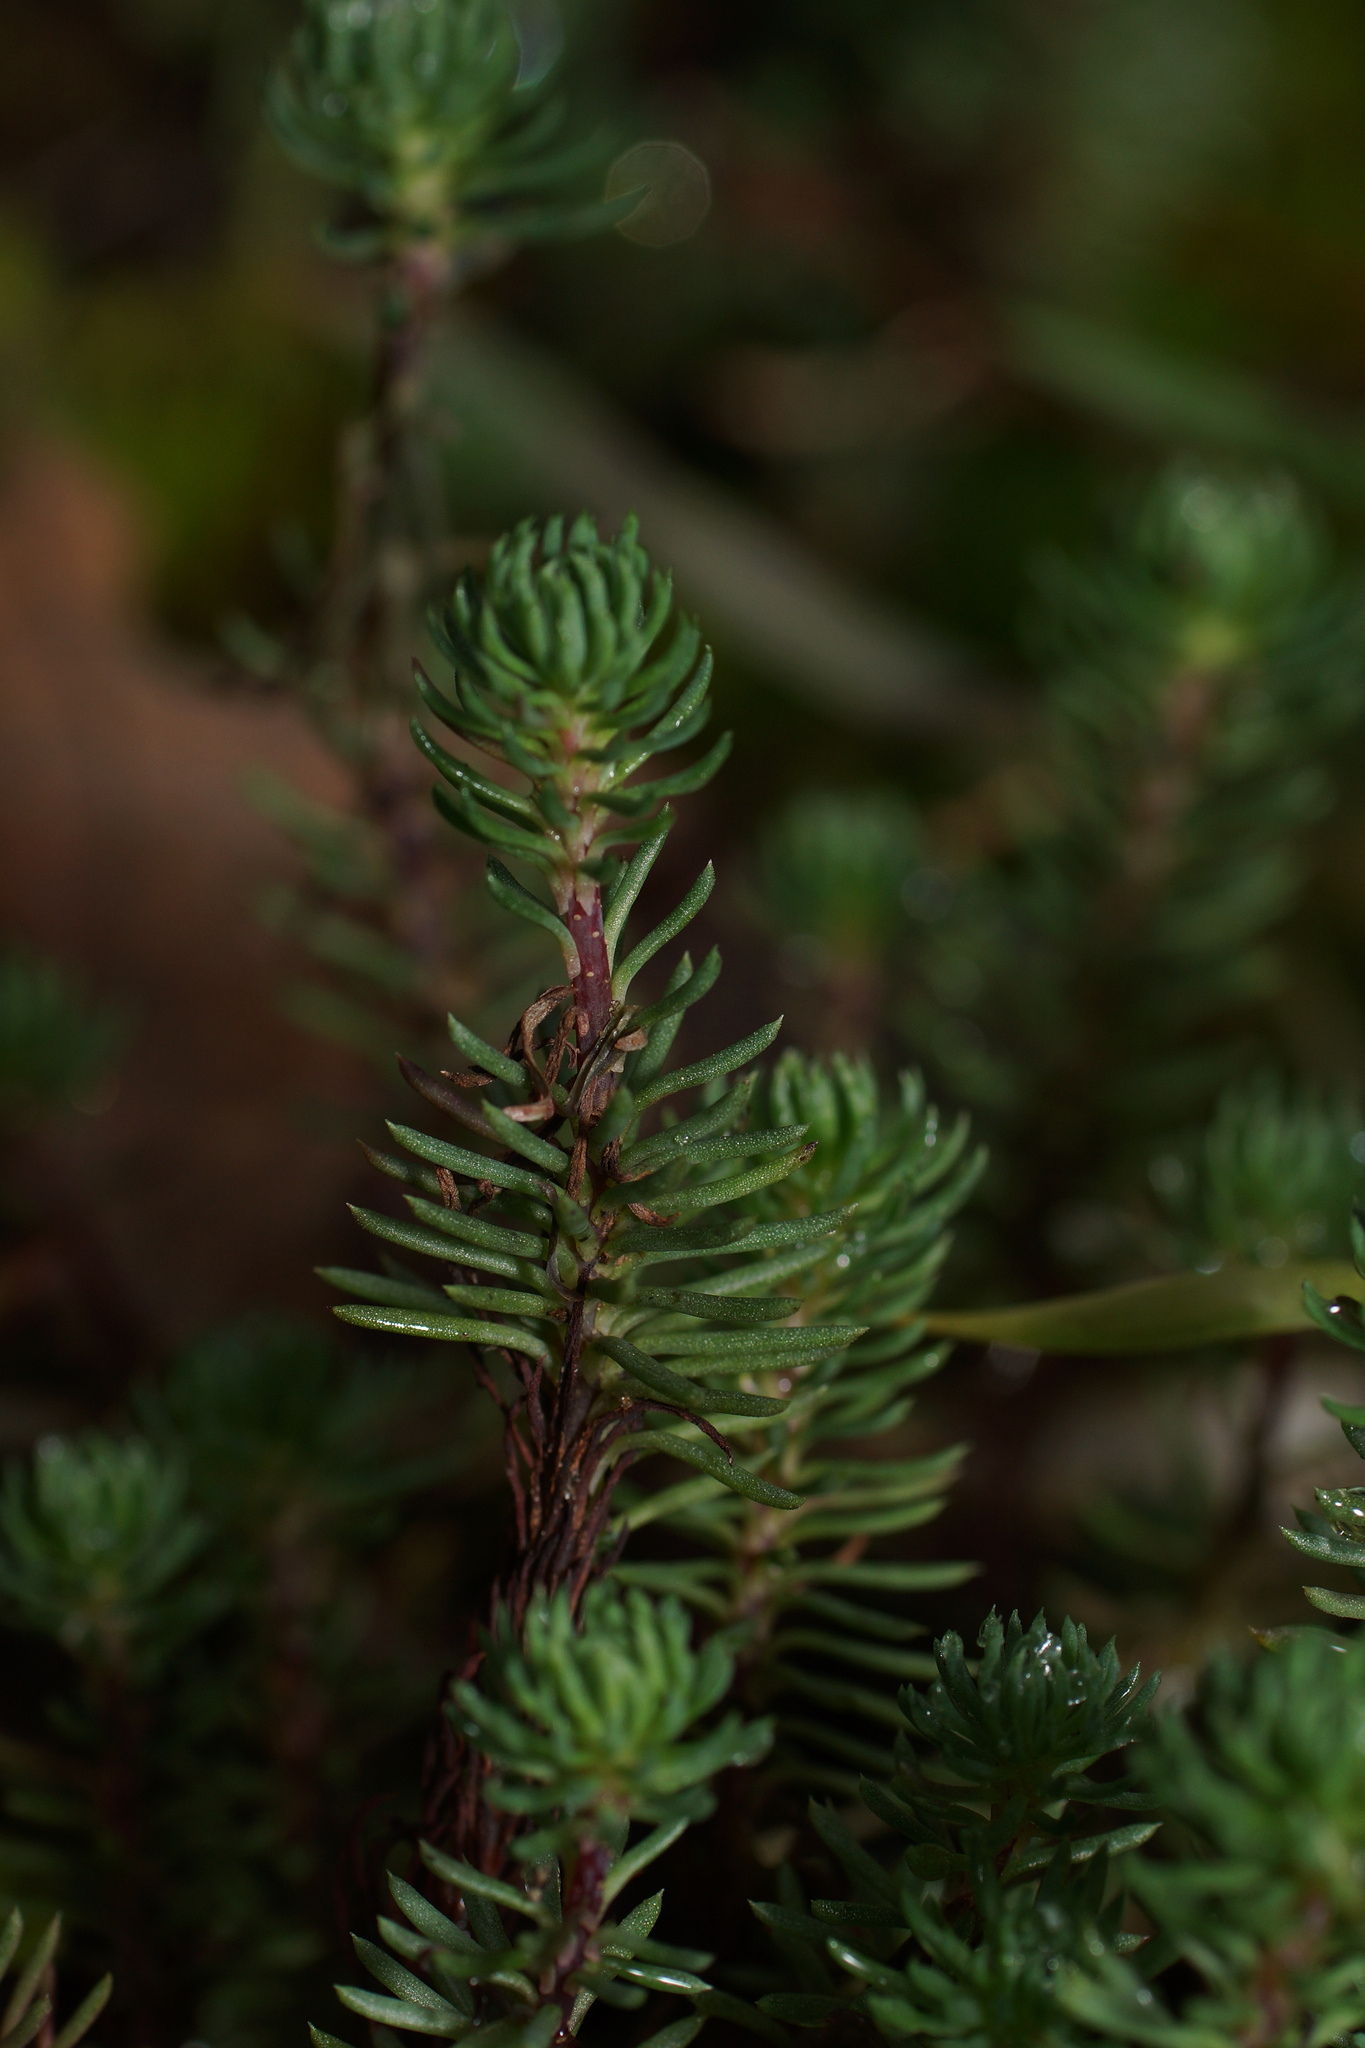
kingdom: Plantae
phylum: Tracheophyta
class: Magnoliopsida
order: Saxifragales
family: Crassulaceae
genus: Petrosedum
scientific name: Petrosedum forsterianum
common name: Forster's stonecrop
